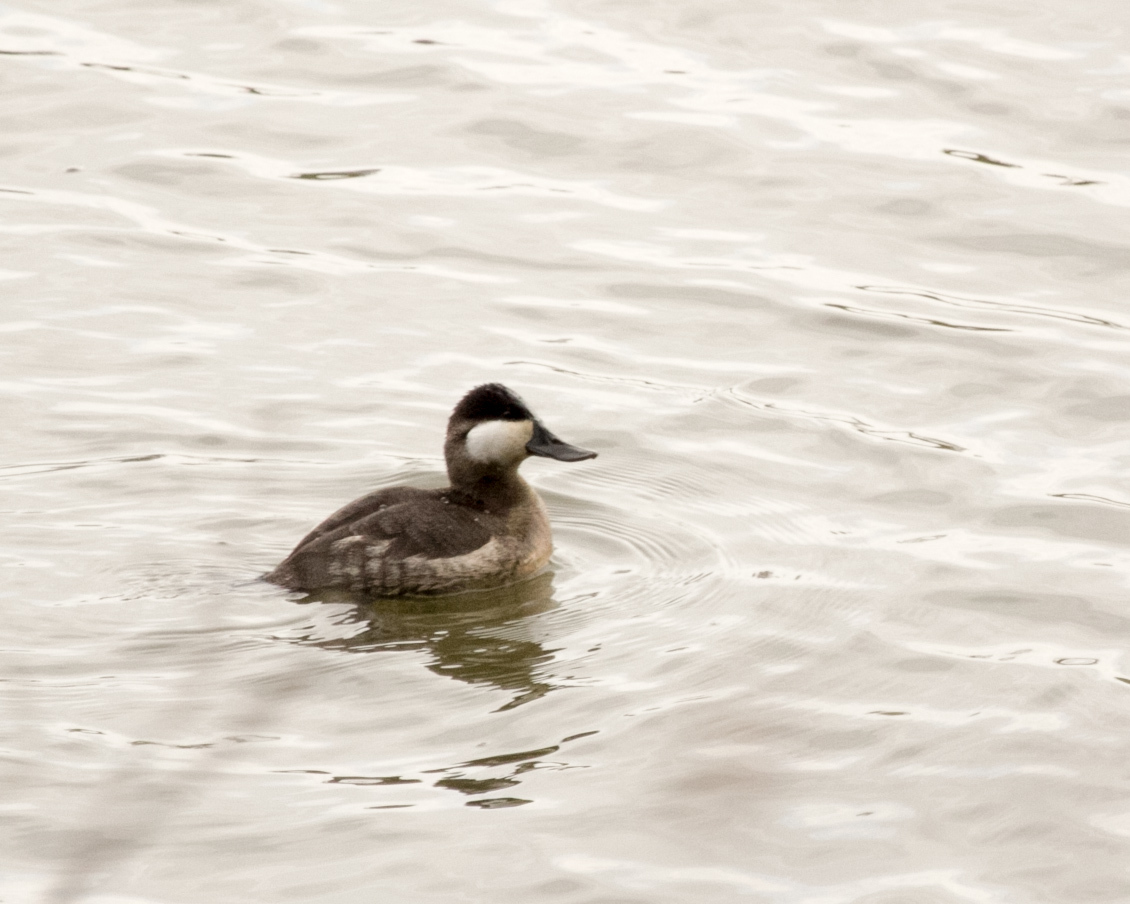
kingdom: Animalia
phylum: Chordata
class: Aves
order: Anseriformes
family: Anatidae
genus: Oxyura
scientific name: Oxyura jamaicensis
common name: Ruddy duck
